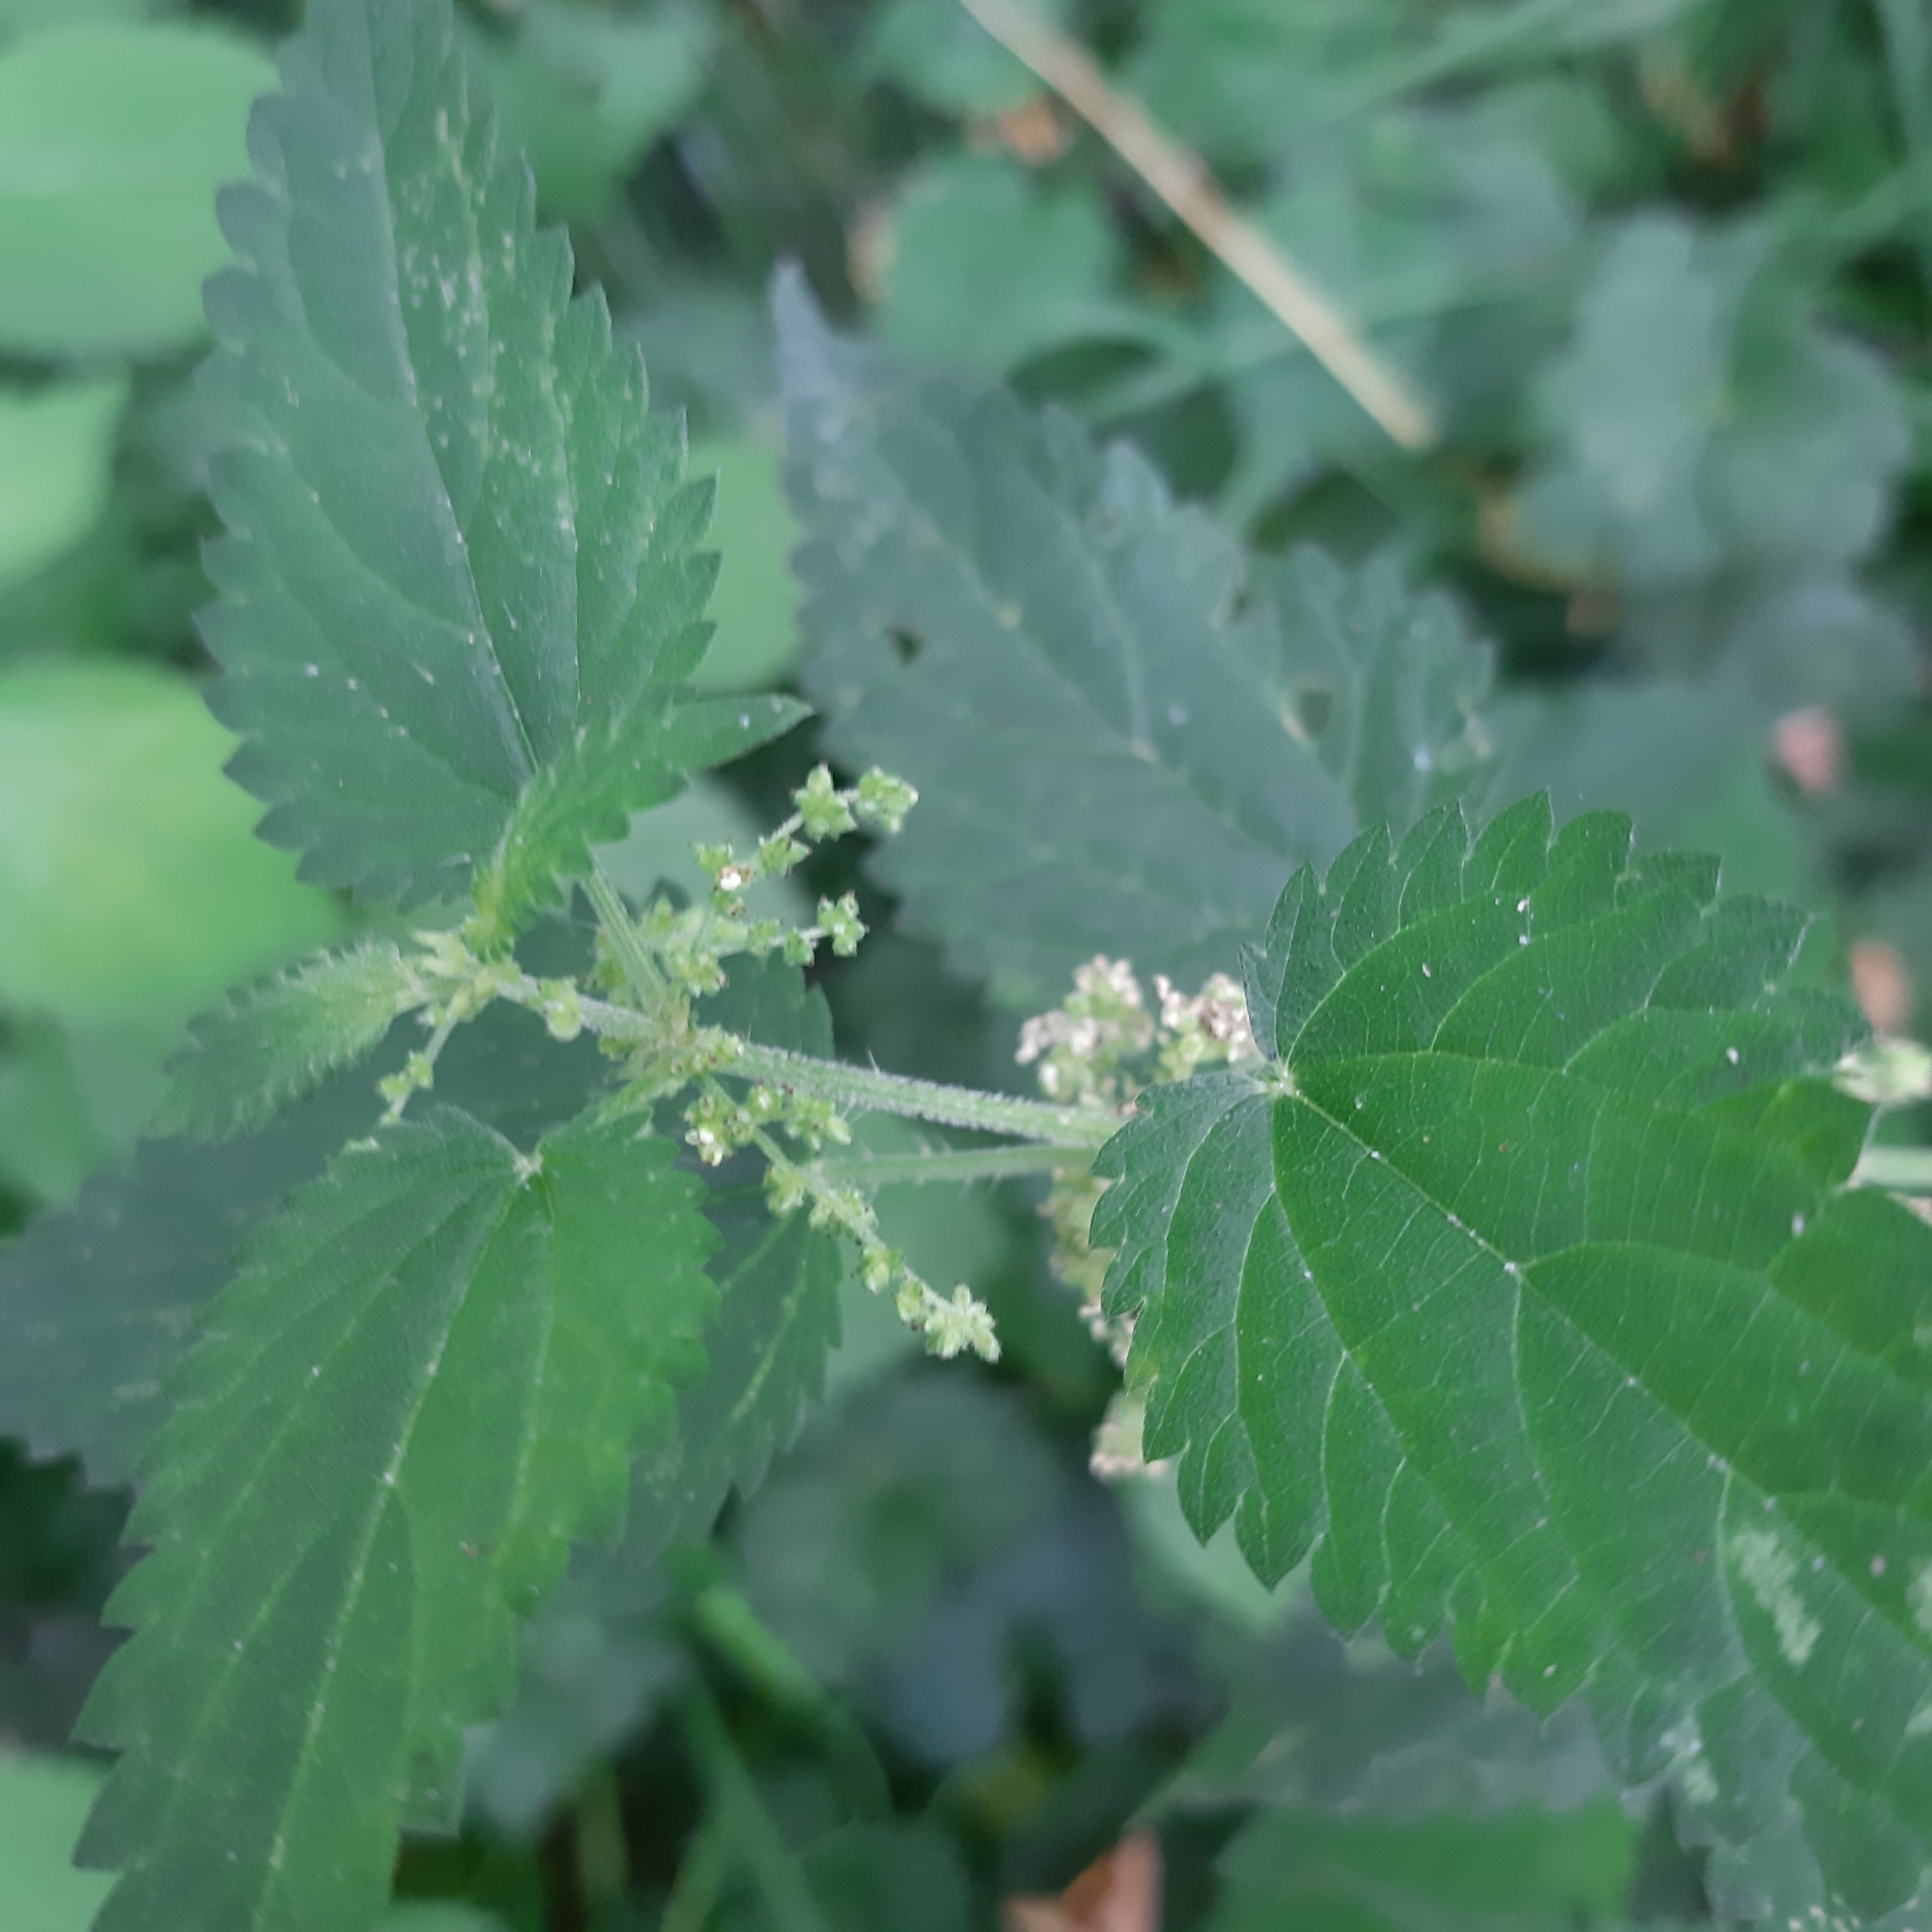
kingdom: Plantae
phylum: Tracheophyta
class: Magnoliopsida
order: Rosales
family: Urticaceae
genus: Urtica
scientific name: Urtica dioica
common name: Common nettle
